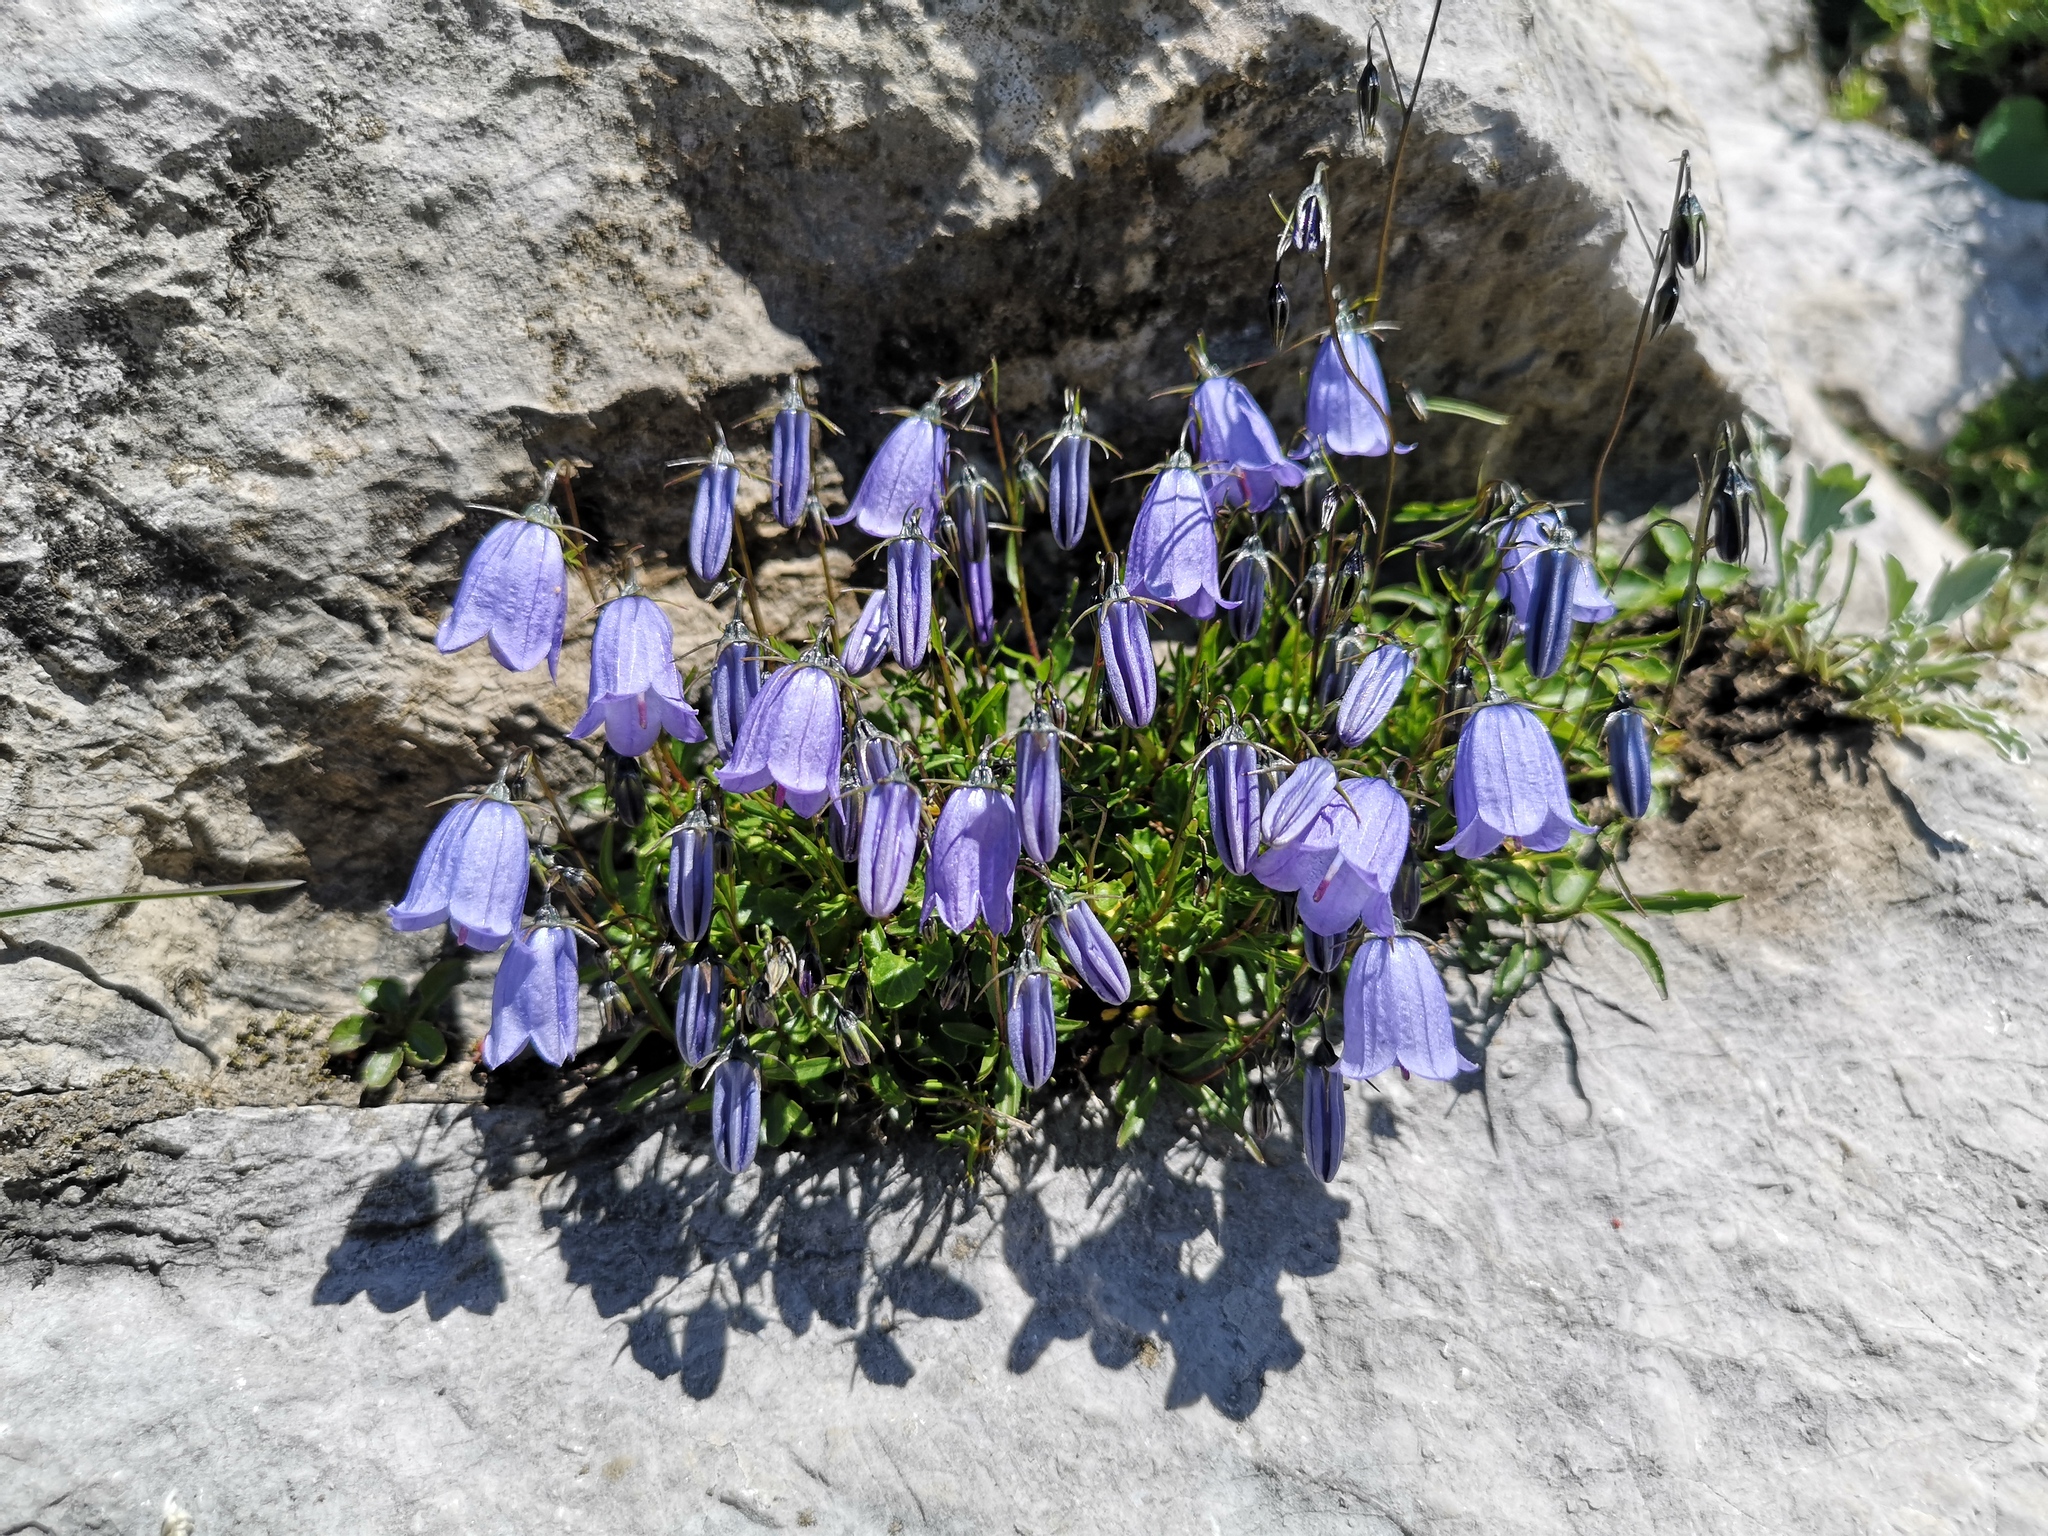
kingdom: Plantae
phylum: Tracheophyta
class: Magnoliopsida
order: Asterales
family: Campanulaceae
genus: Campanula
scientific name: Campanula cochleariifolia
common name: Fairies'-thimbles
